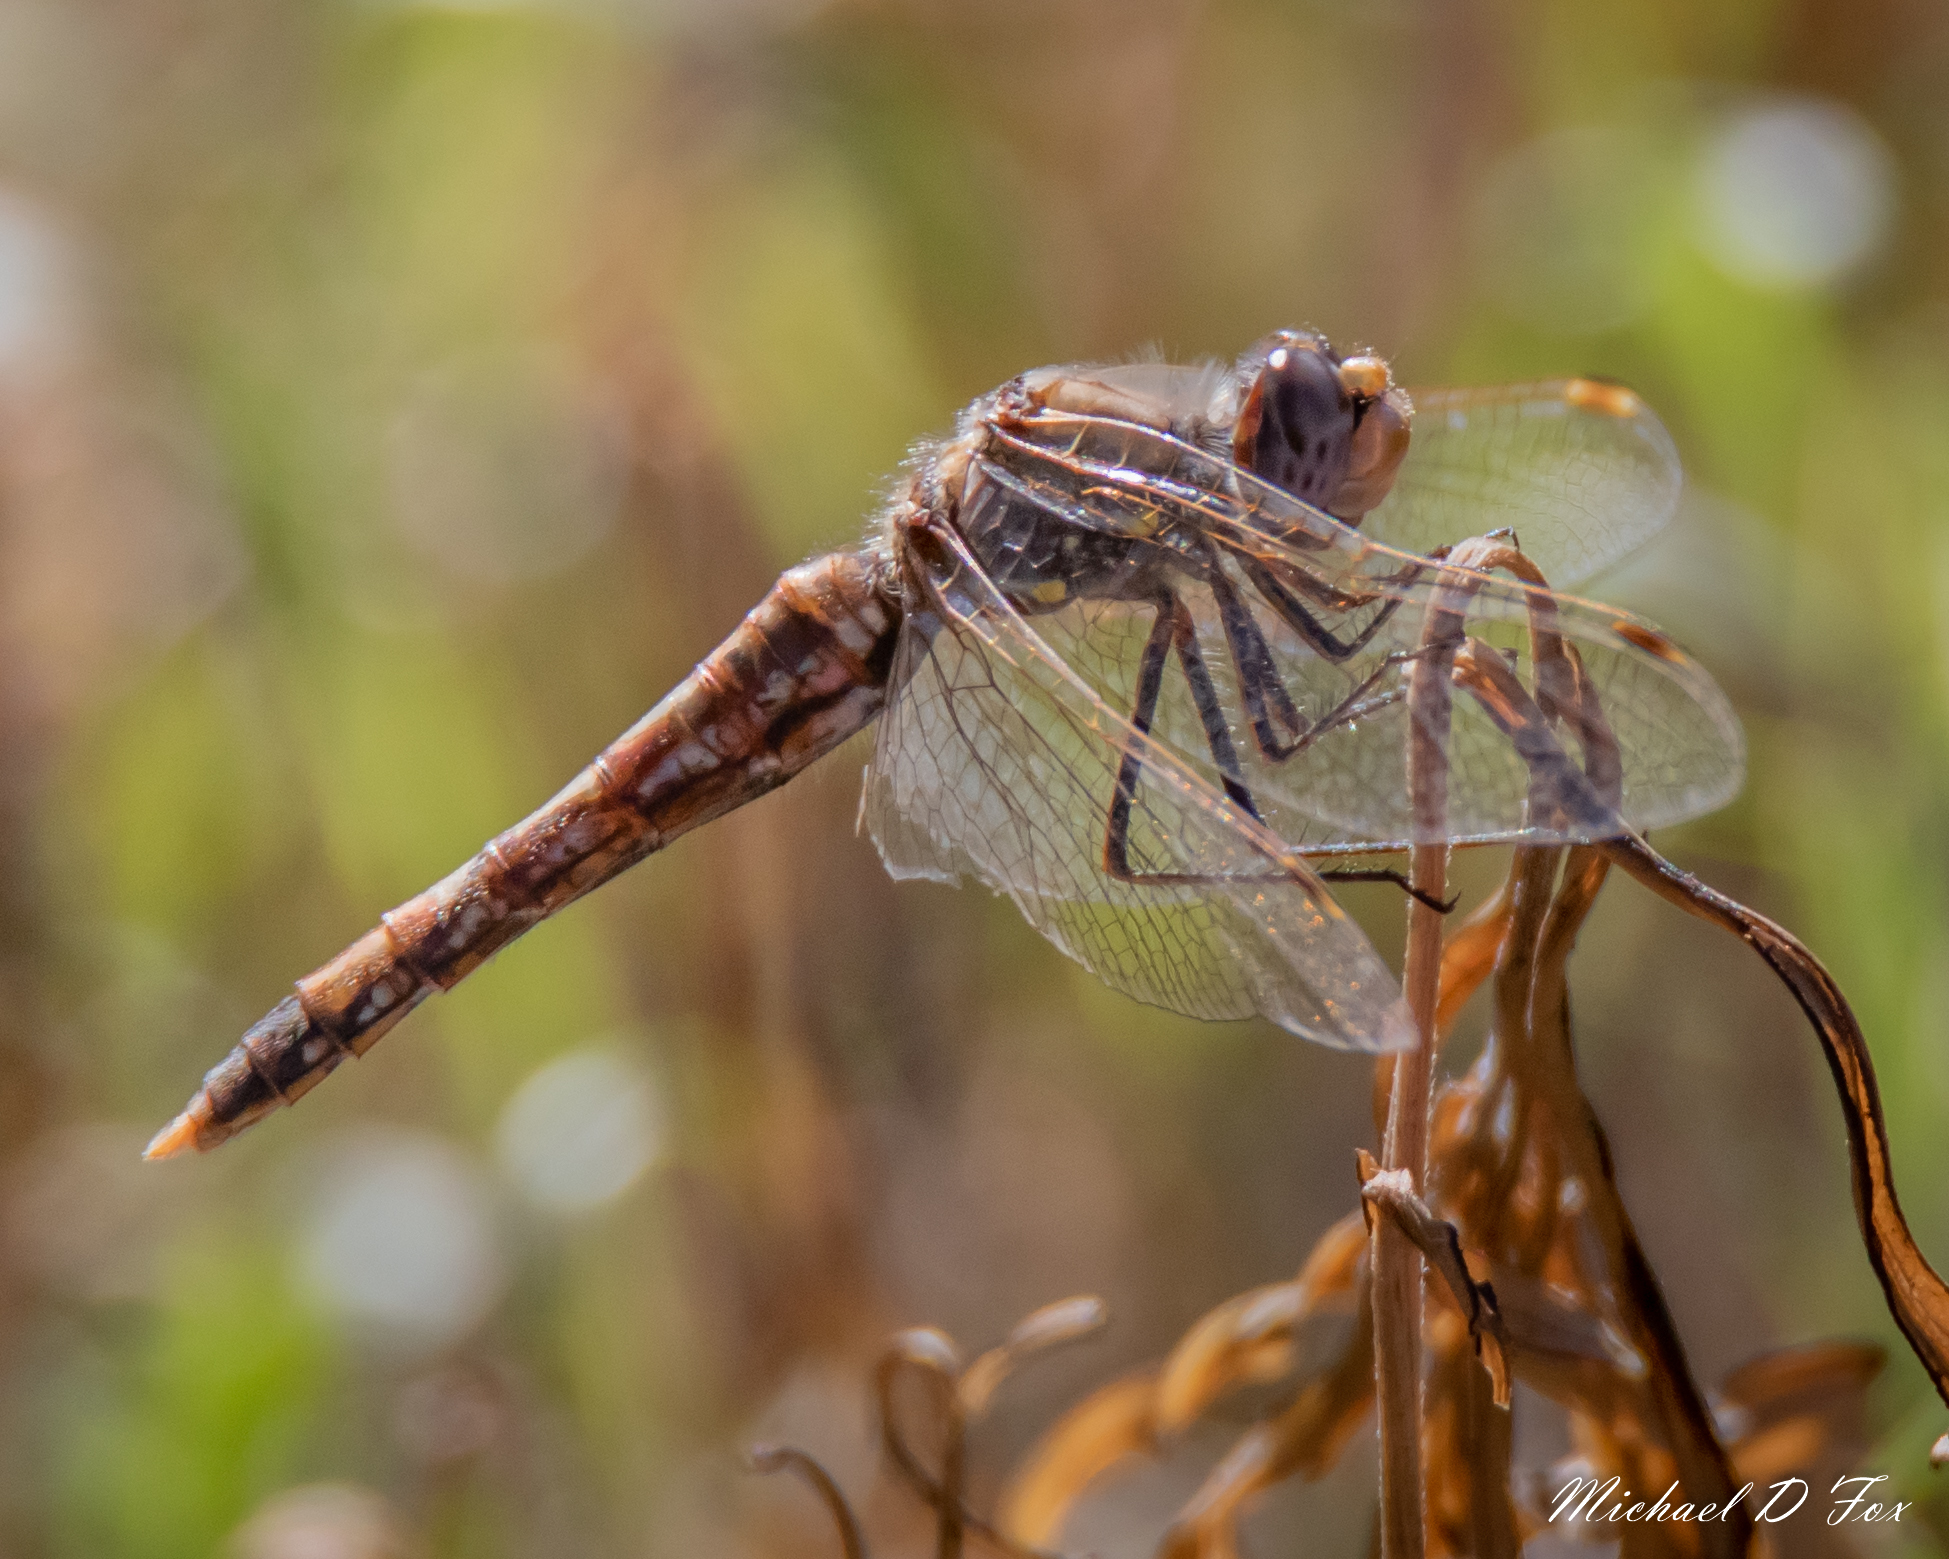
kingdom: Animalia
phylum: Arthropoda
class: Insecta
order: Odonata
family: Libellulidae
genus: Sympetrum
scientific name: Sympetrum corruptum
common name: Variegated meadowhawk
